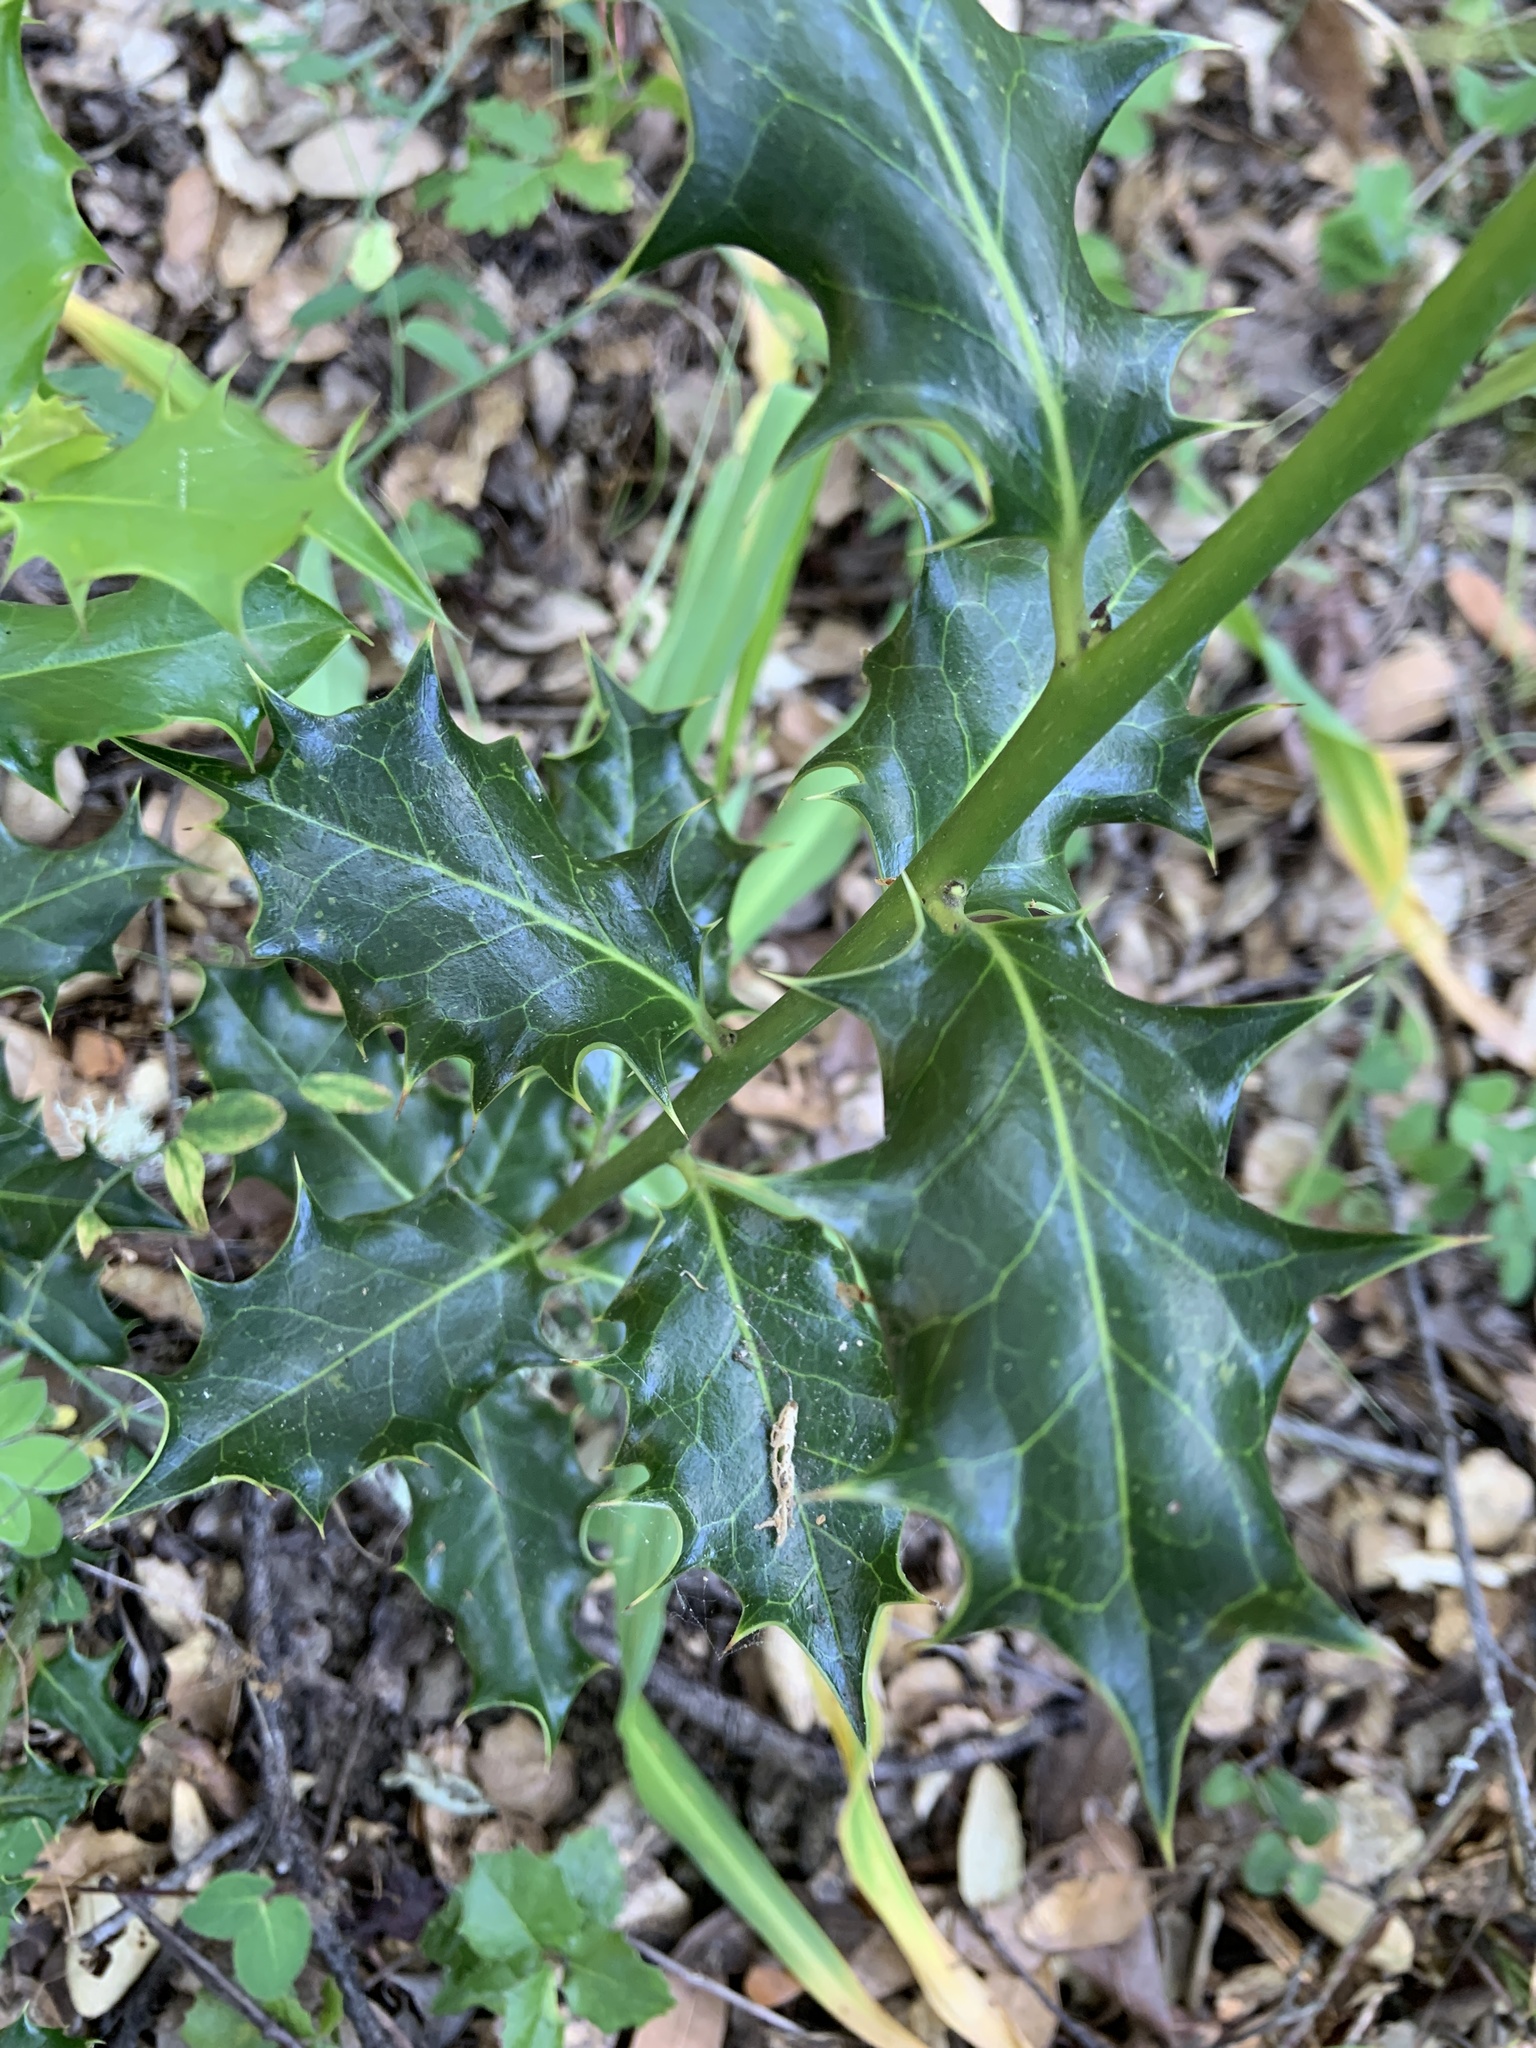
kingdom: Plantae
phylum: Tracheophyta
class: Magnoliopsida
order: Aquifoliales
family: Aquifoliaceae
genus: Ilex
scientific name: Ilex aquifolium
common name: English holly
